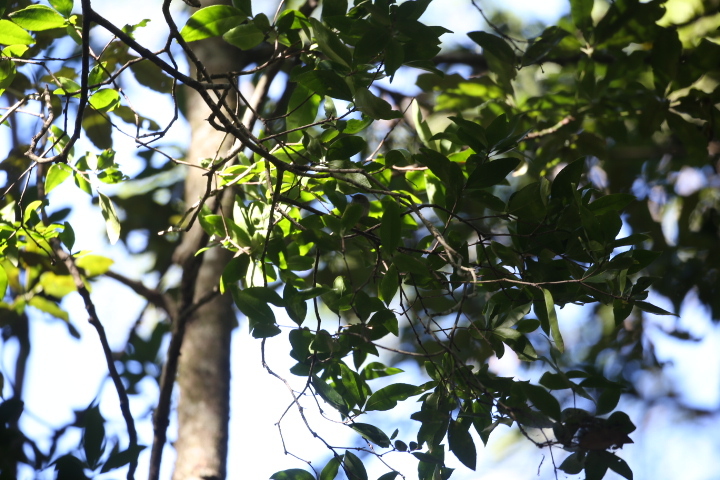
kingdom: Animalia
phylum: Chordata
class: Aves
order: Passeriformes
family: Acanthizidae
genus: Acanthiza
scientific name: Acanthiza pusilla
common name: Brown thornbill
